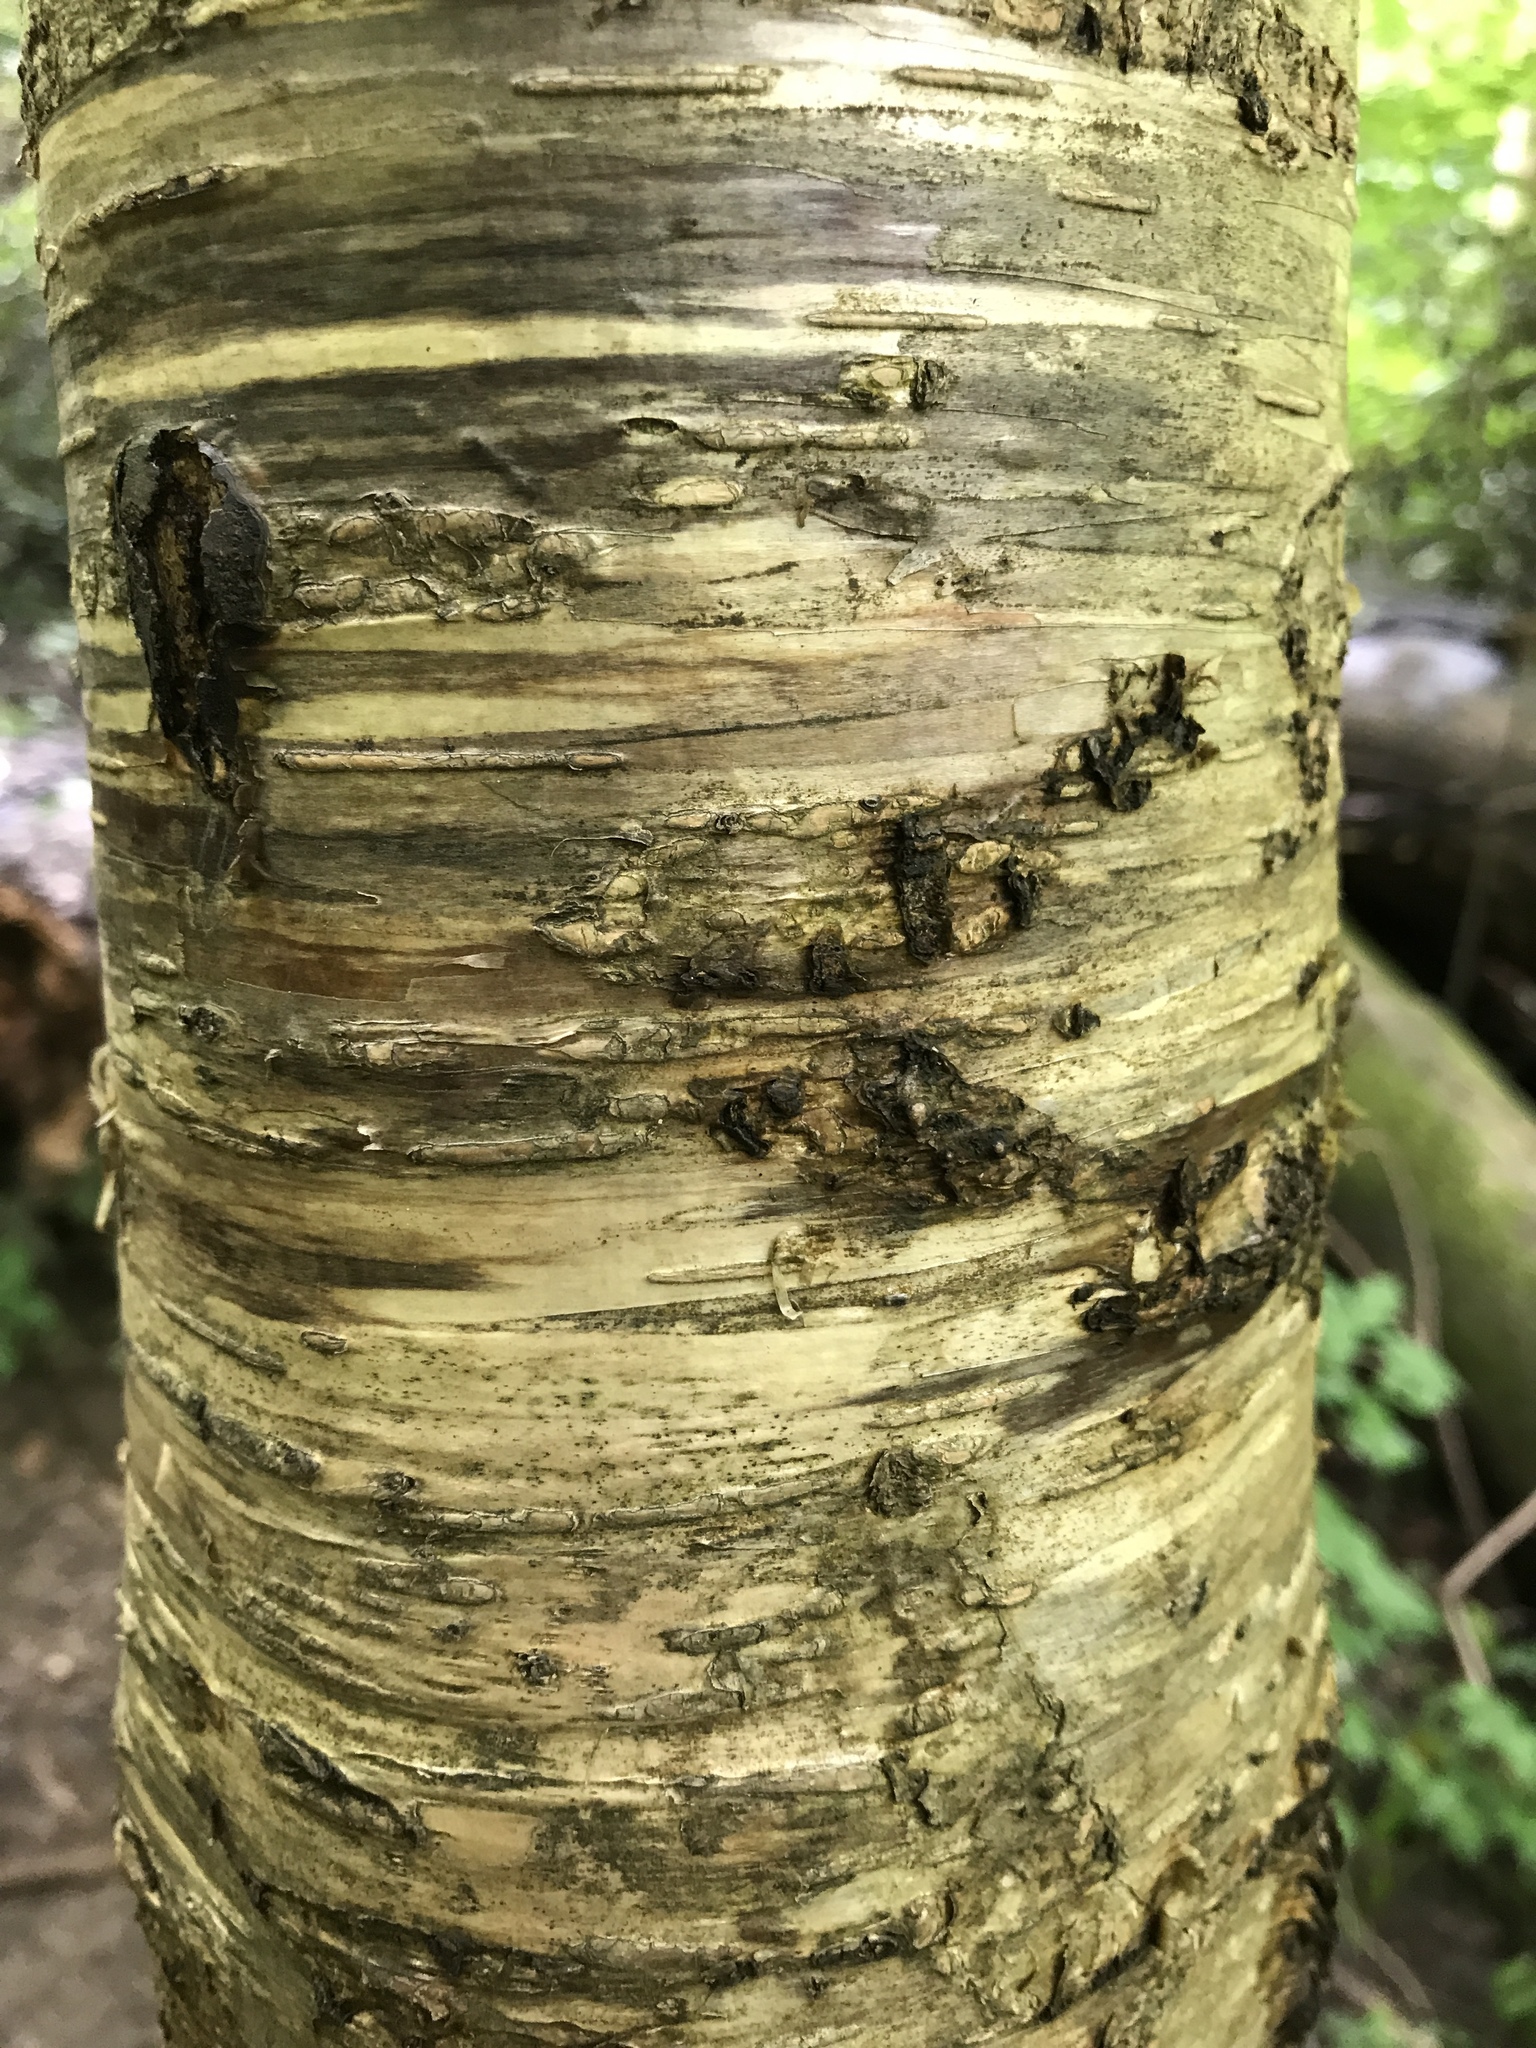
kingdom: Plantae
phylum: Tracheophyta
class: Magnoliopsida
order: Fagales
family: Betulaceae
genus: Betula
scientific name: Betula alleghaniensis
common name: Yellow birch
